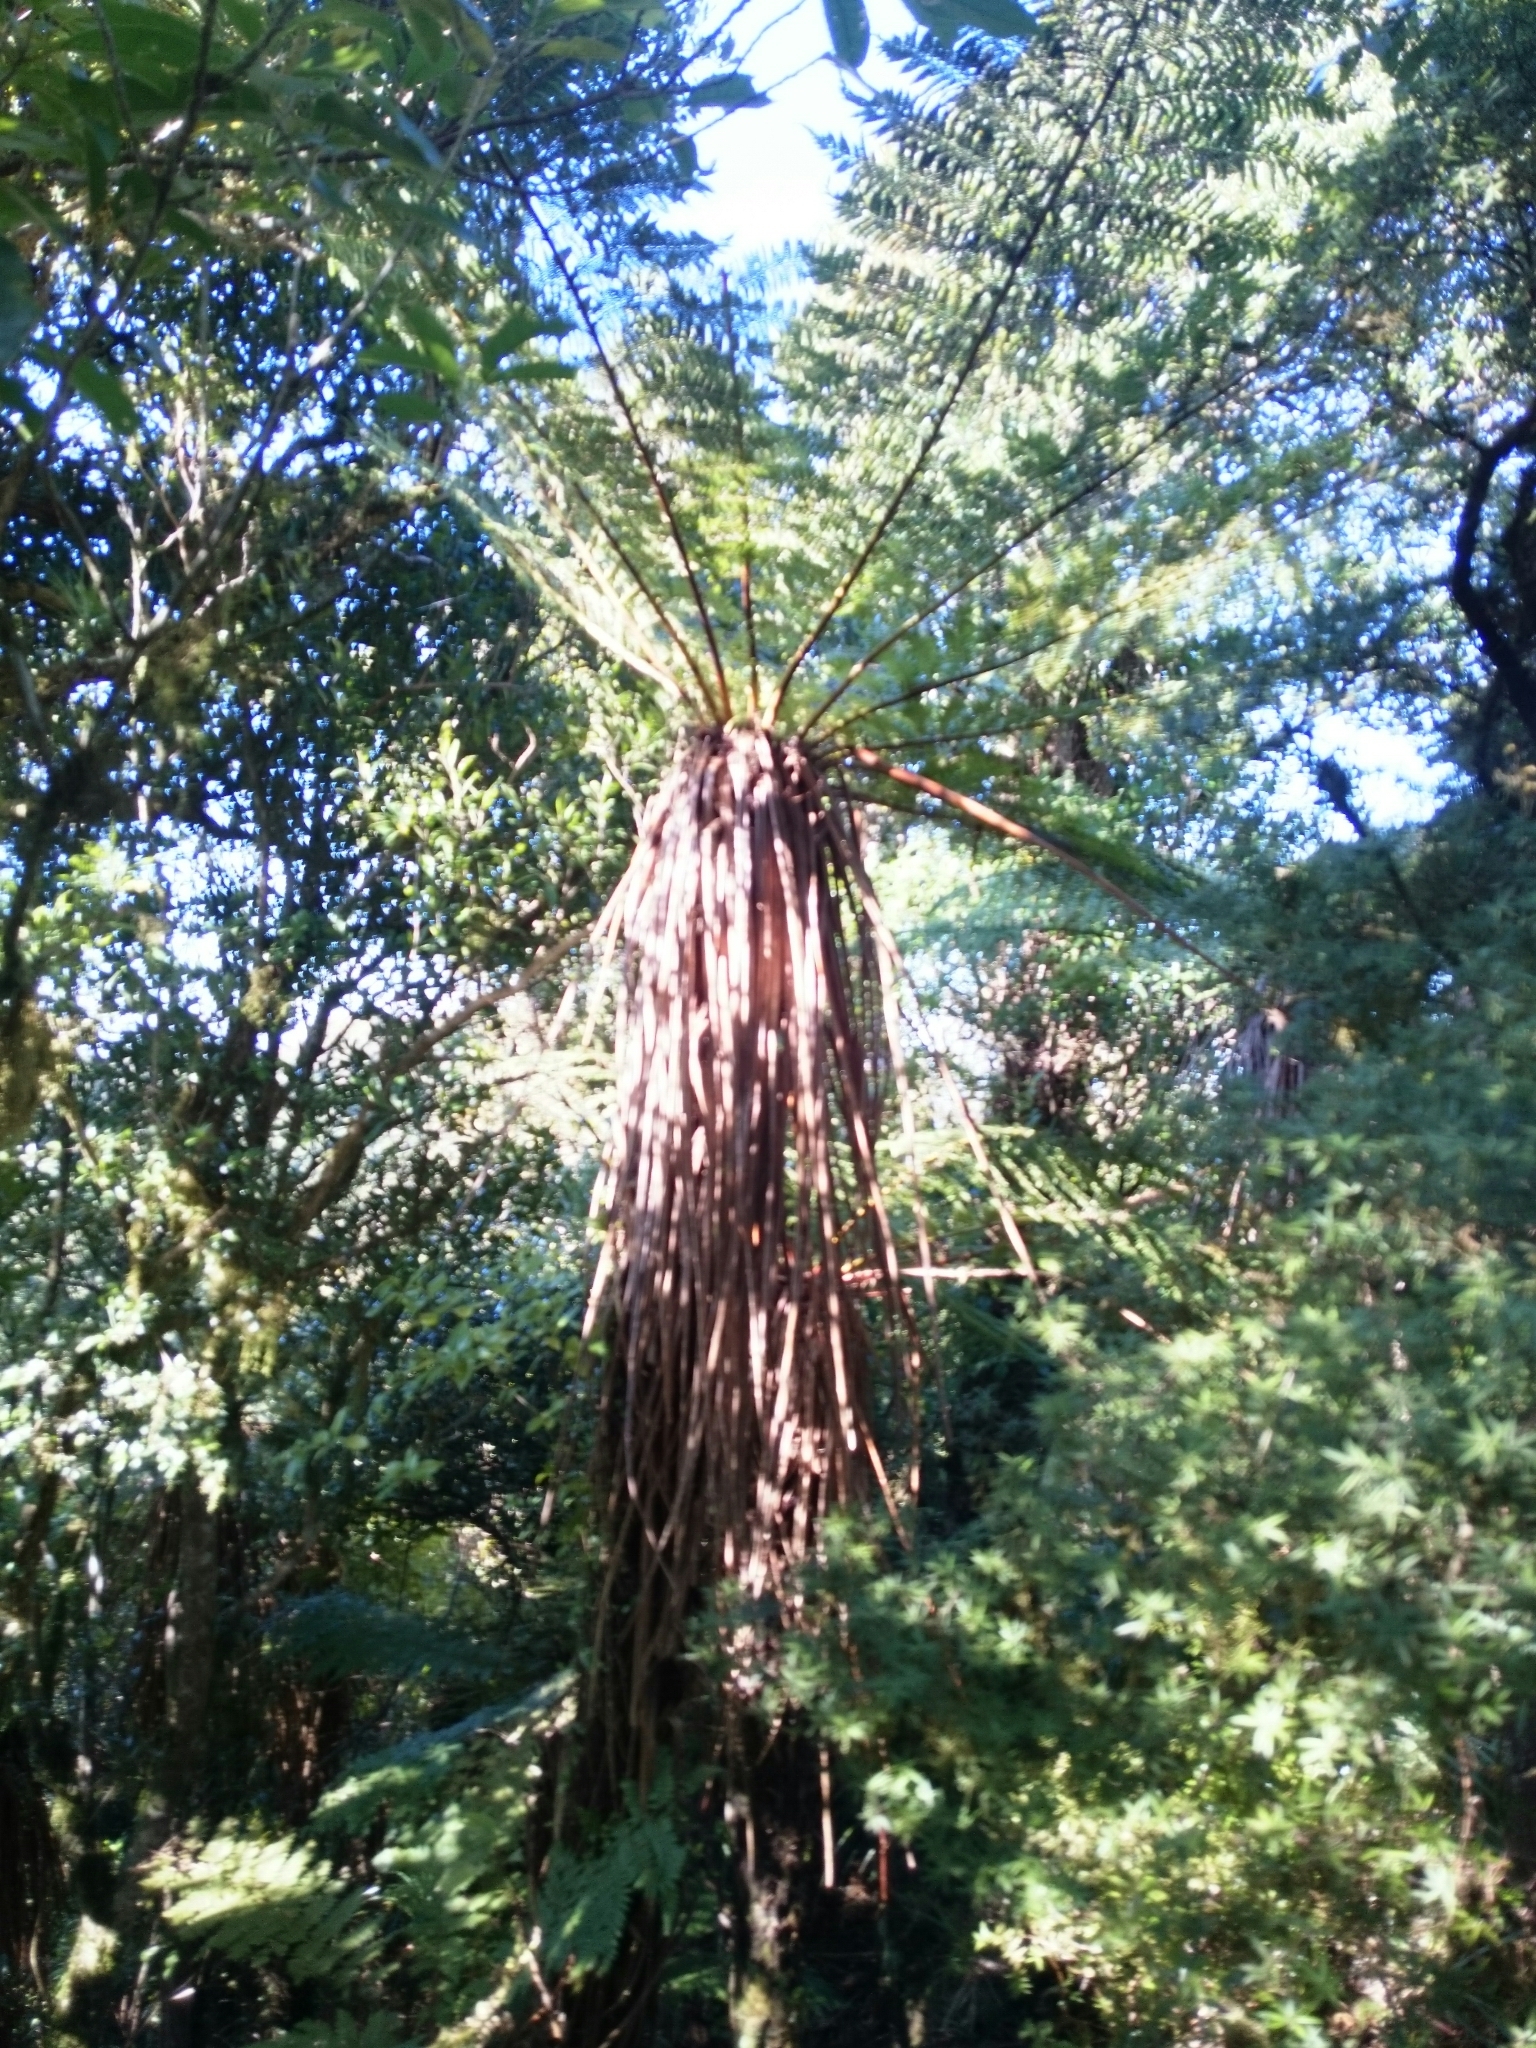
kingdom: Plantae
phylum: Tracheophyta
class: Polypodiopsida
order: Cyatheales
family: Cyatheaceae
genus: Alsophila
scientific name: Alsophila smithii
